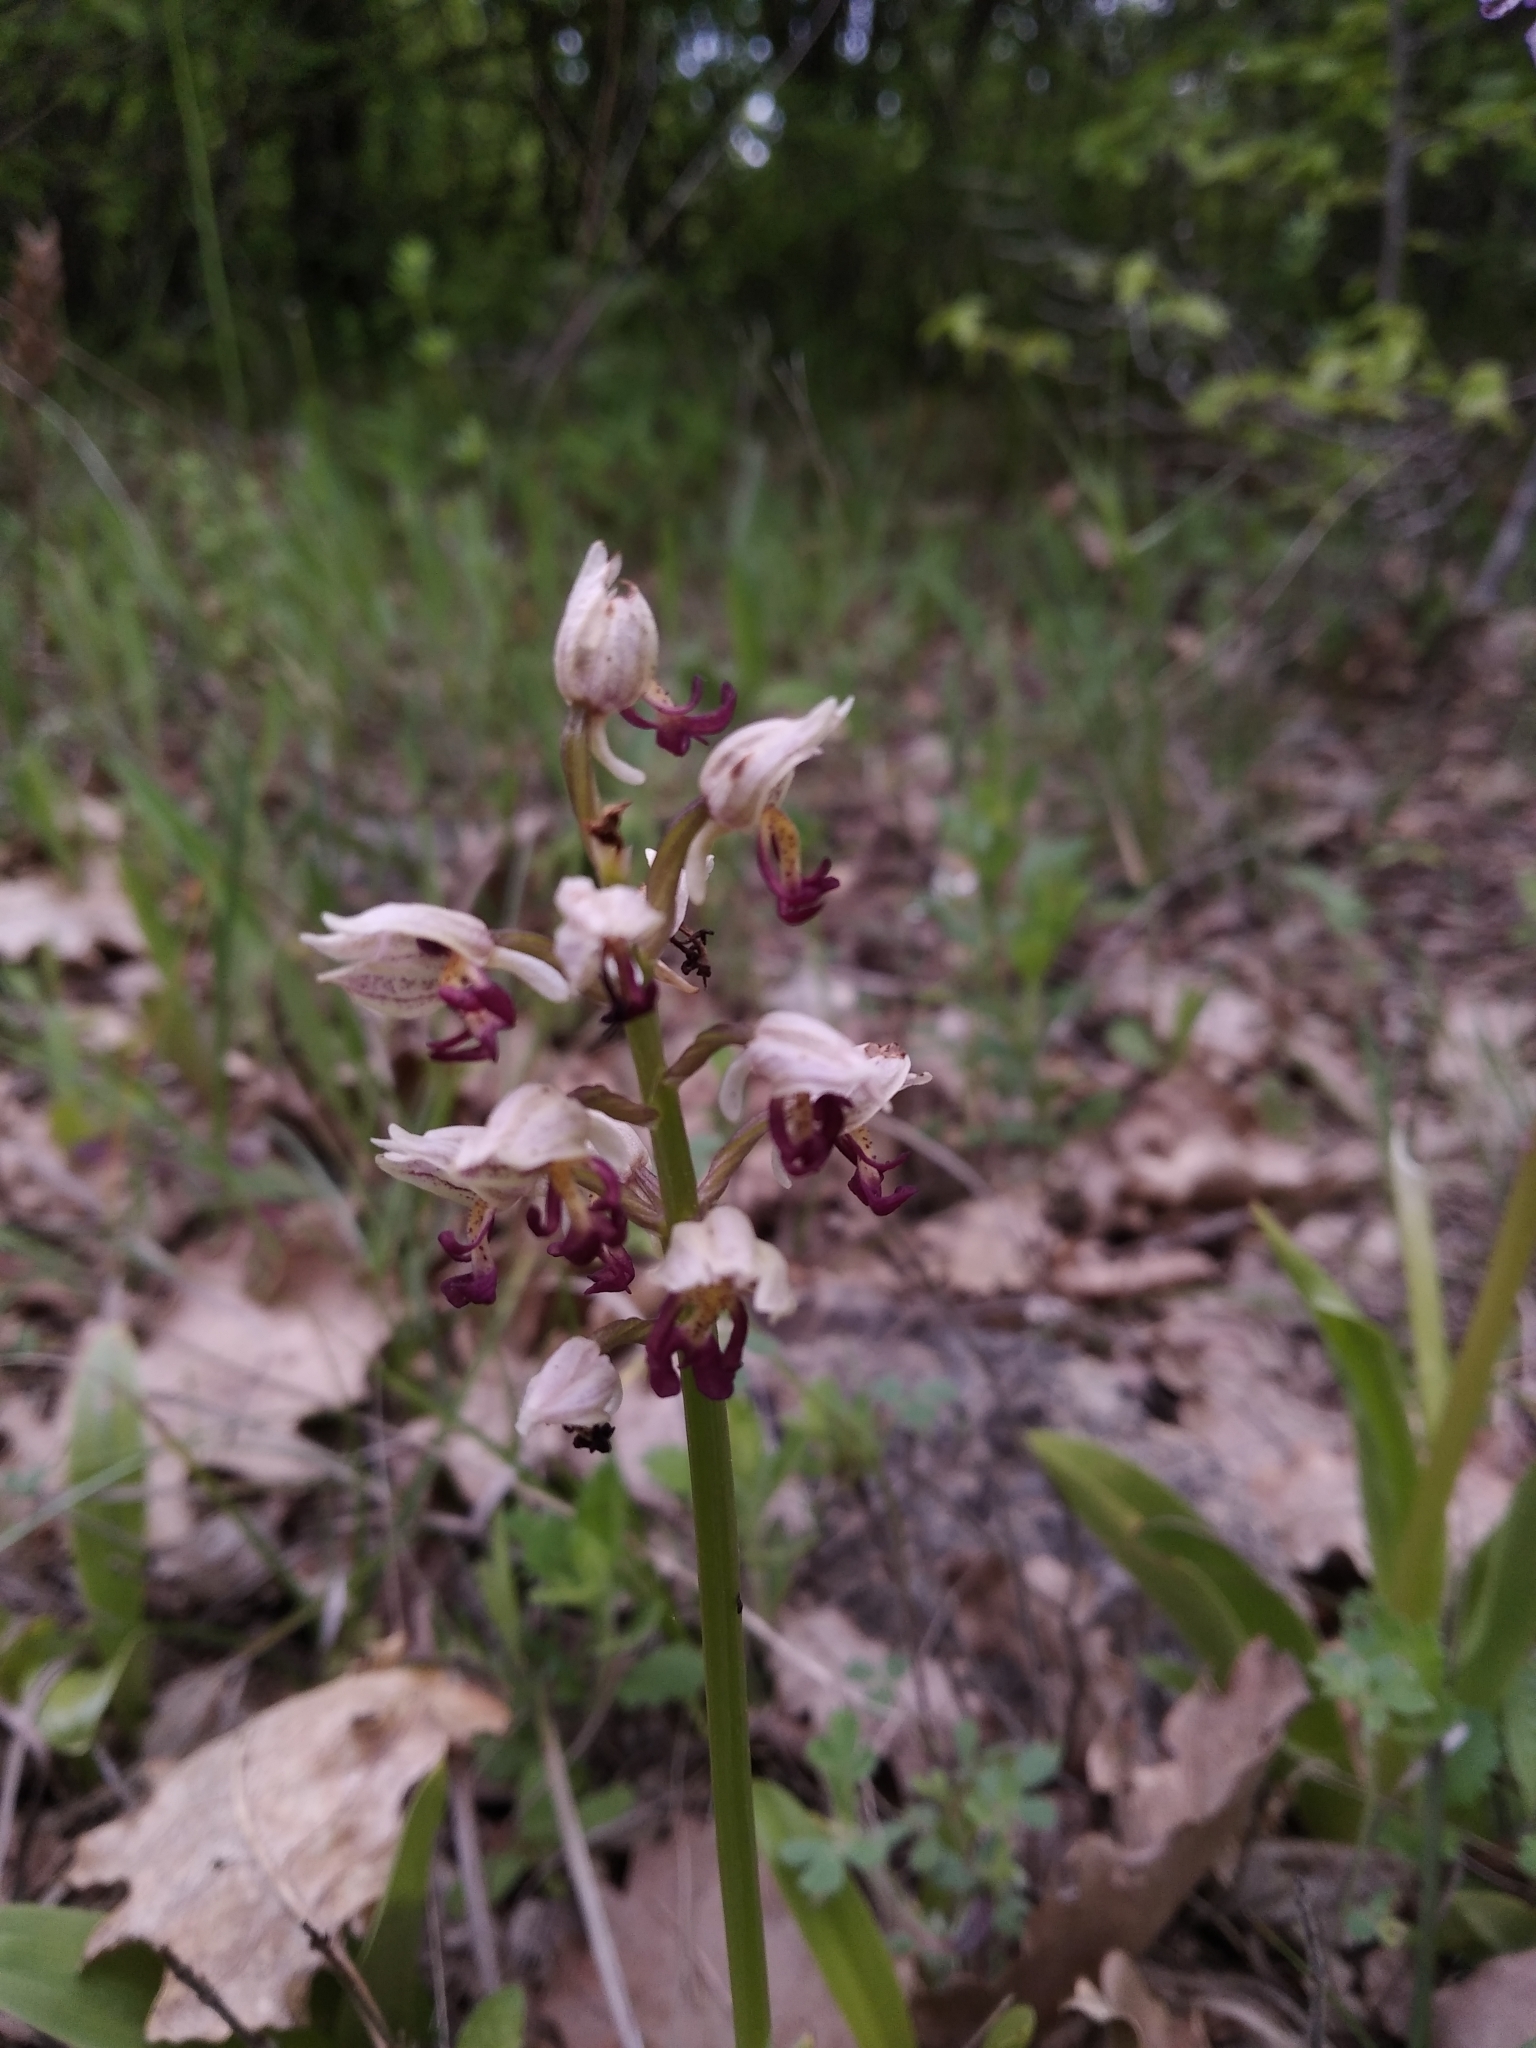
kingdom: Plantae
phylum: Tracheophyta
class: Liliopsida
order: Asparagales
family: Orchidaceae
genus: Orchis
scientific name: Orchis calliantha
